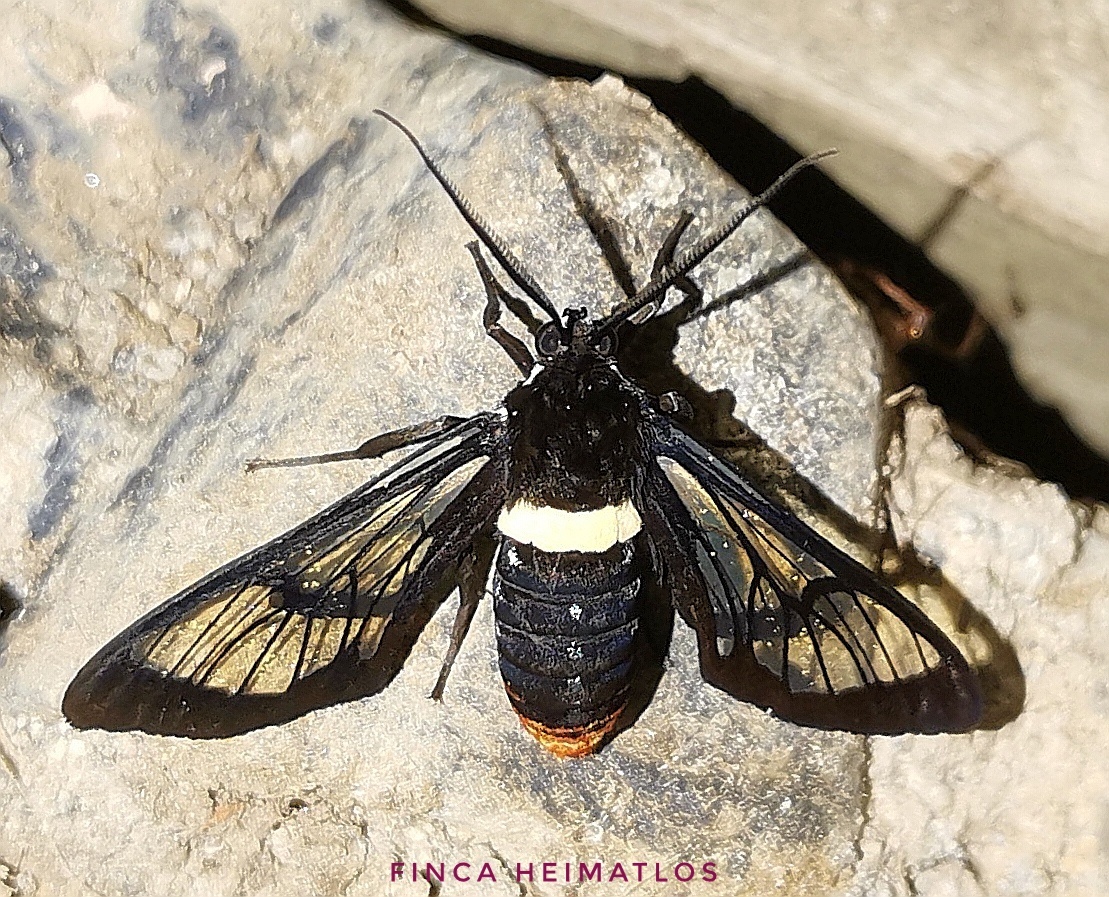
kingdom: Animalia
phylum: Arthropoda
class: Insecta
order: Lepidoptera
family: Erebidae
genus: Autochloris
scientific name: Autochloris cincta
